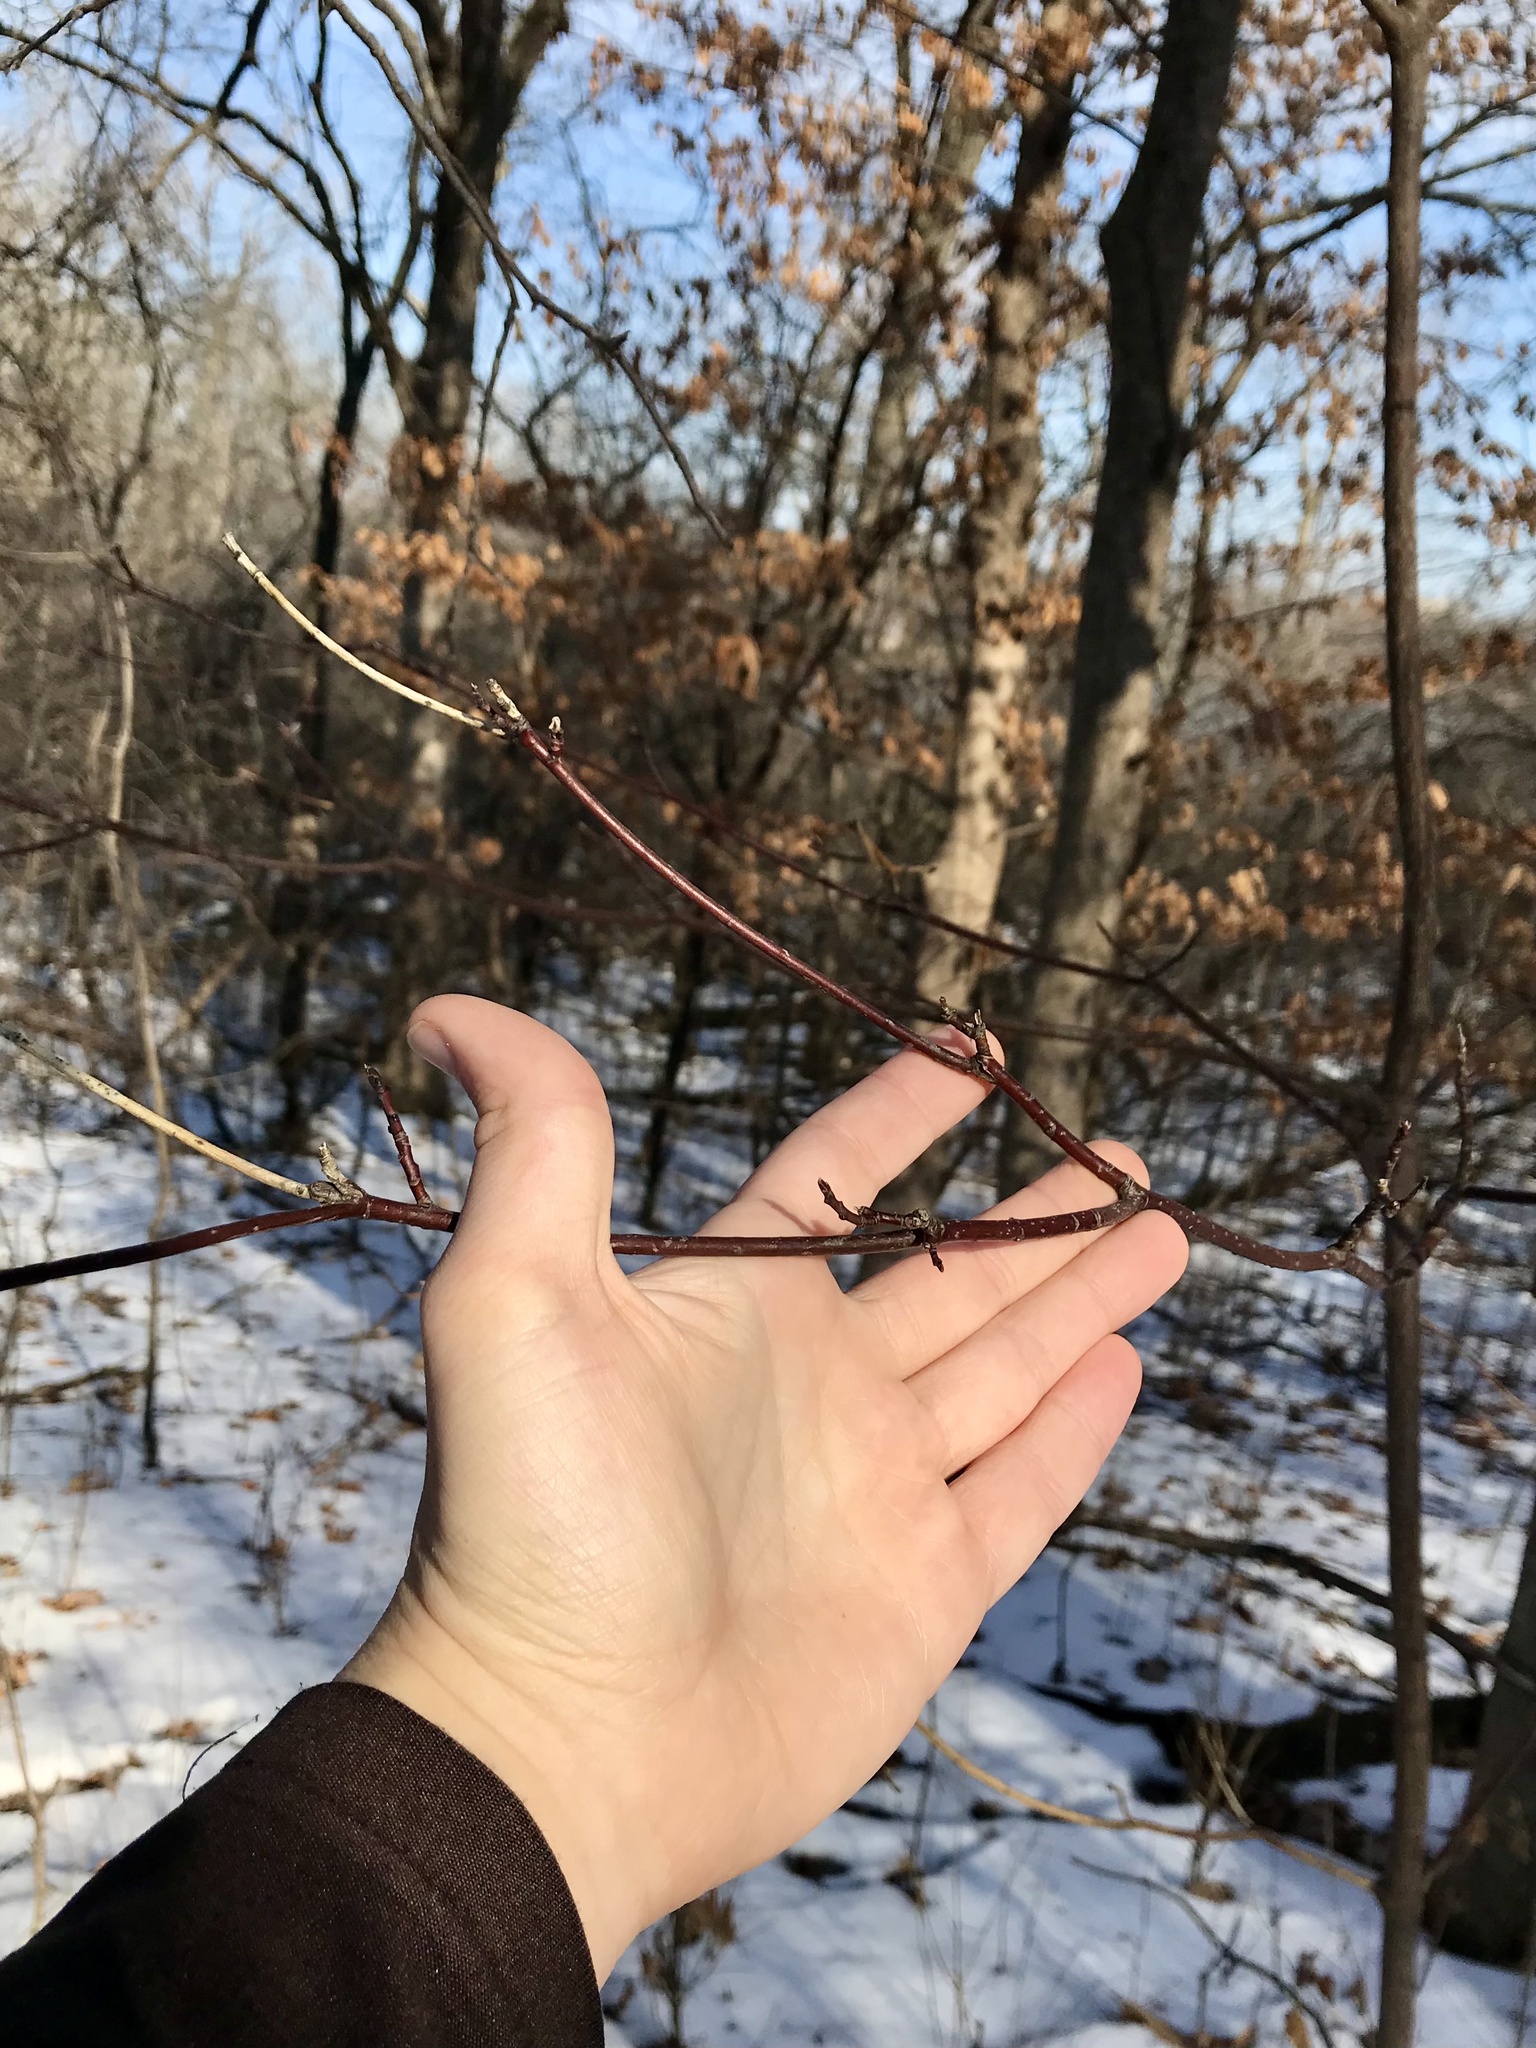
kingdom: Plantae
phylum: Tracheophyta
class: Magnoliopsida
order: Cornales
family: Cornaceae
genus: Cornus
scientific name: Cornus alternifolia
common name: Pagoda dogwood
